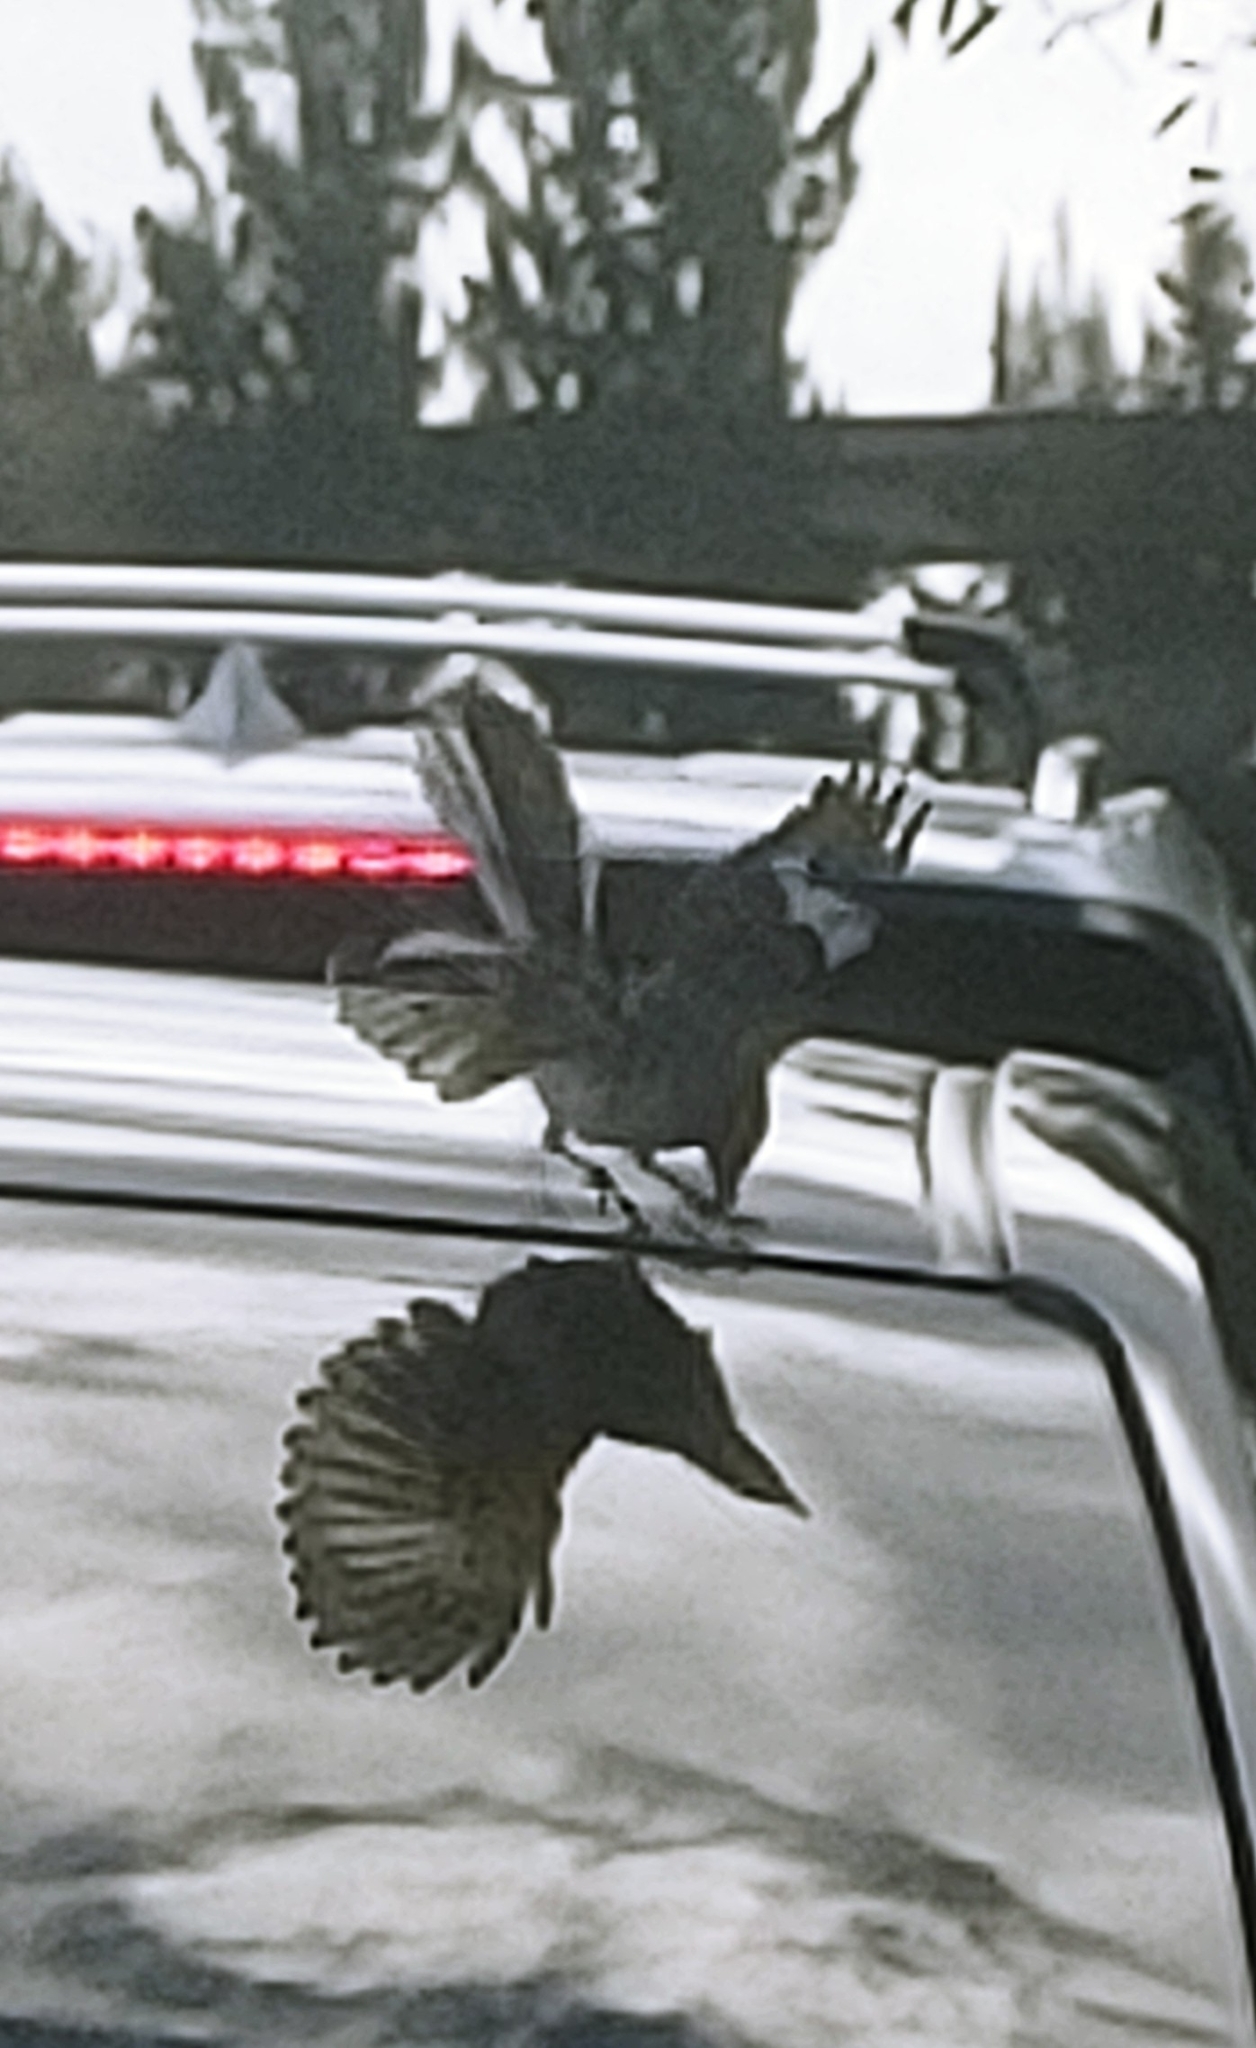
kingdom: Animalia
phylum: Chordata
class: Aves
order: Passeriformes
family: Mimidae
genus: Mimus
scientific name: Mimus polyglottos
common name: Northern mockingbird
